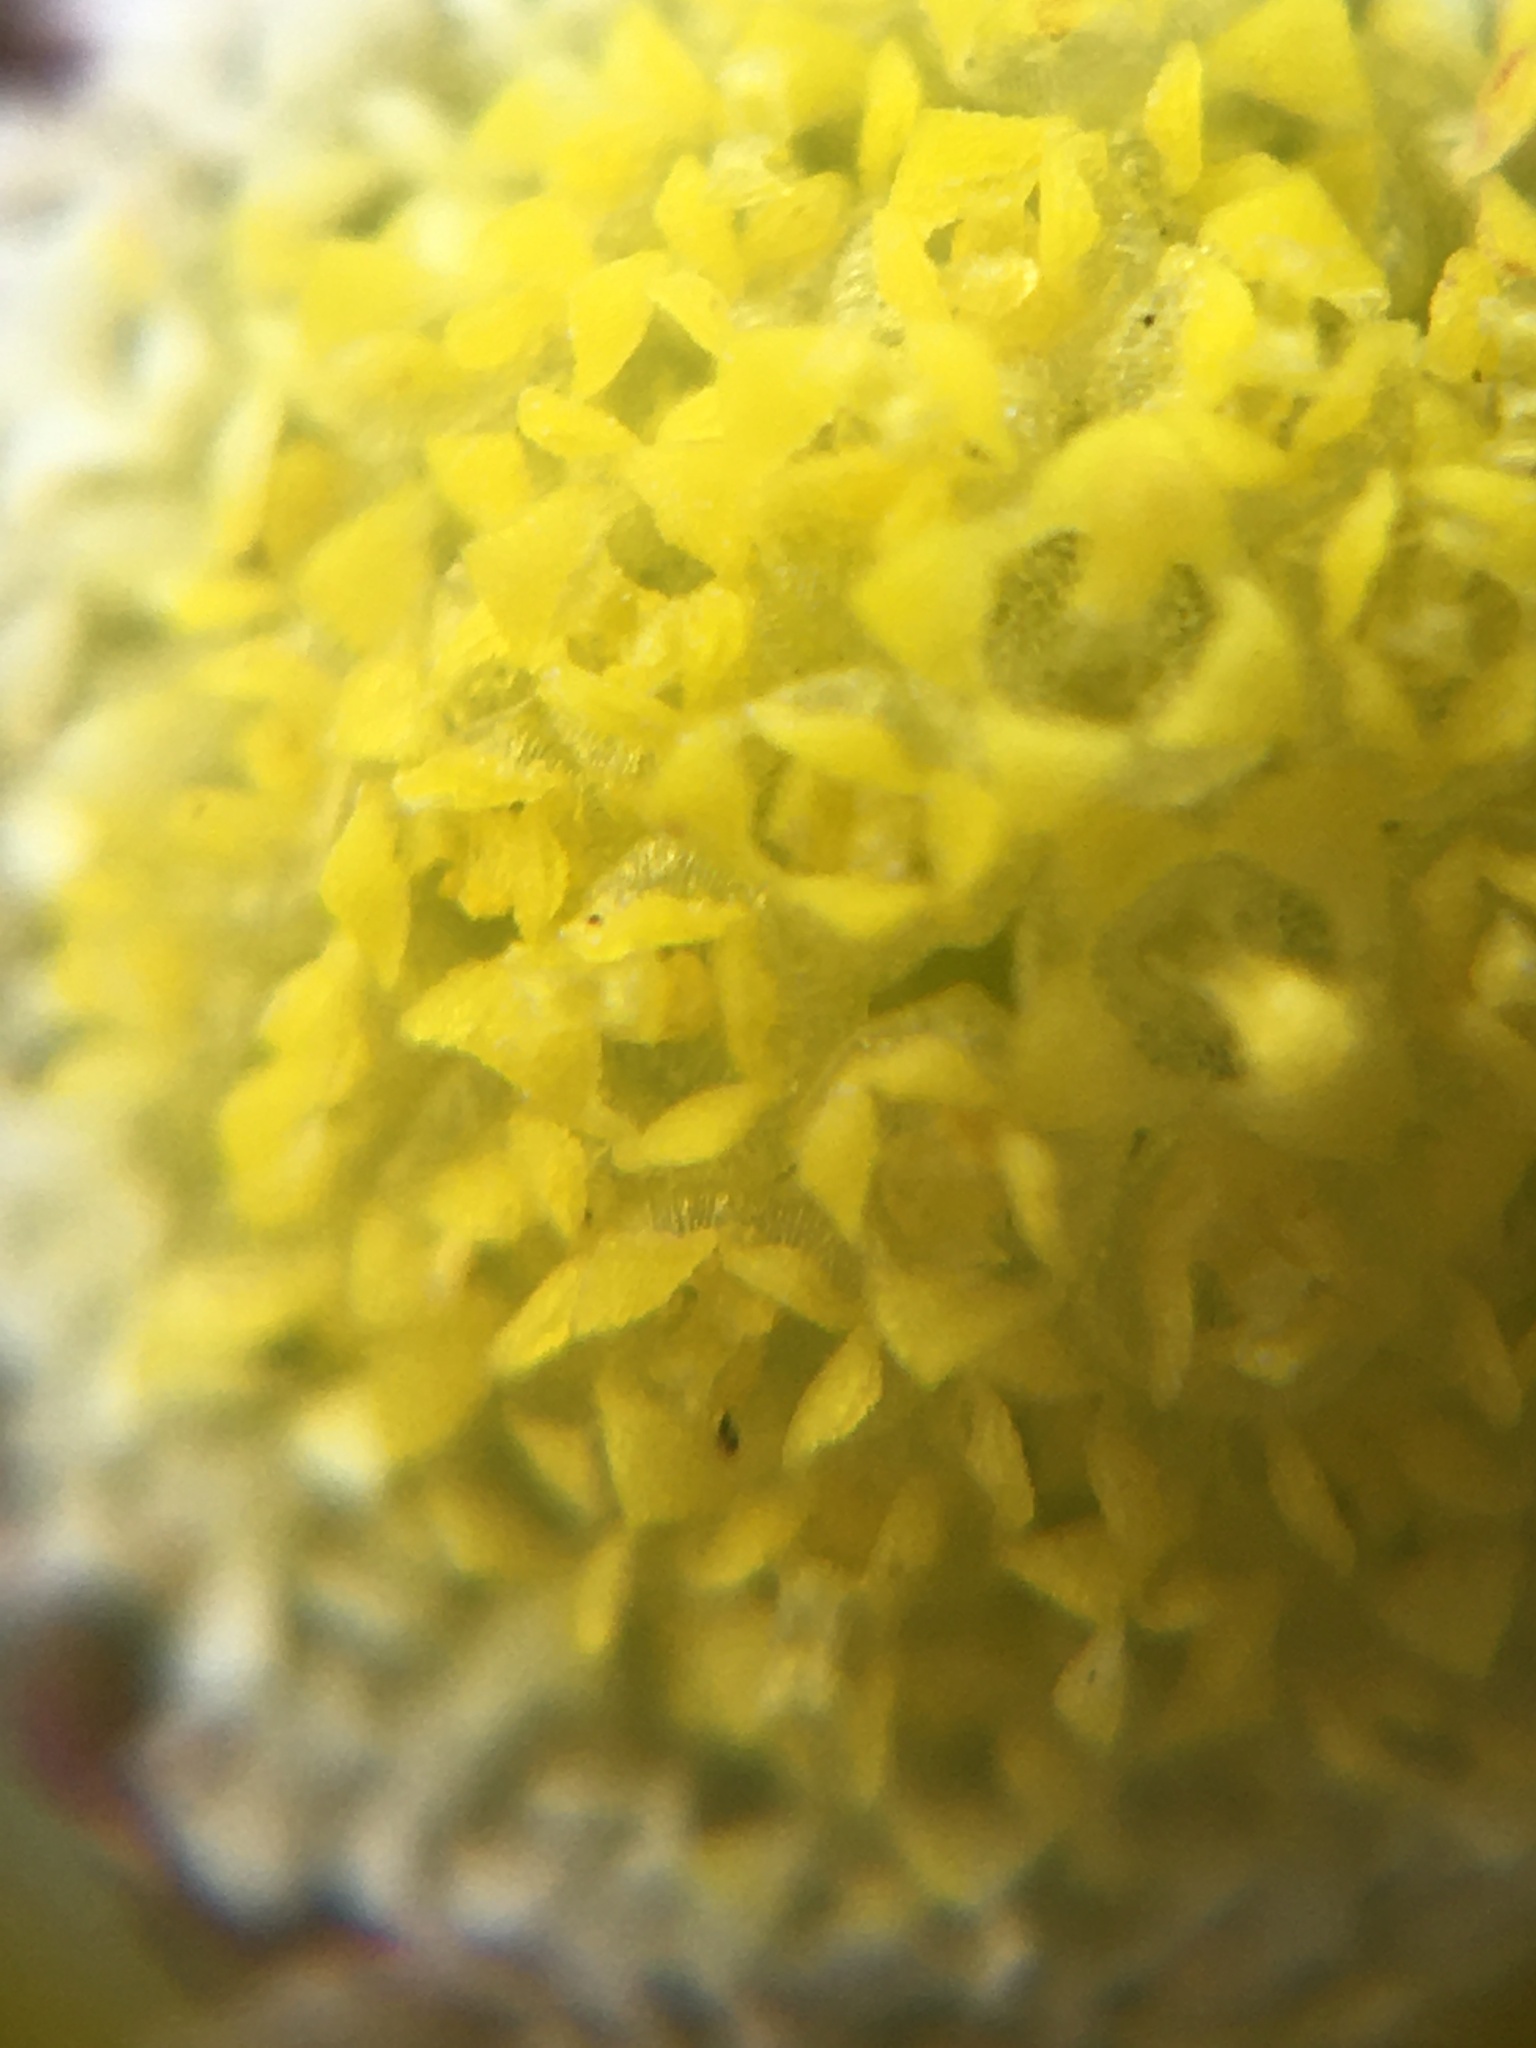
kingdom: Plantae
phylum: Tracheophyta
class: Magnoliopsida
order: Asterales
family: Asteraceae
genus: Cotula
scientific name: Cotula turbinata
